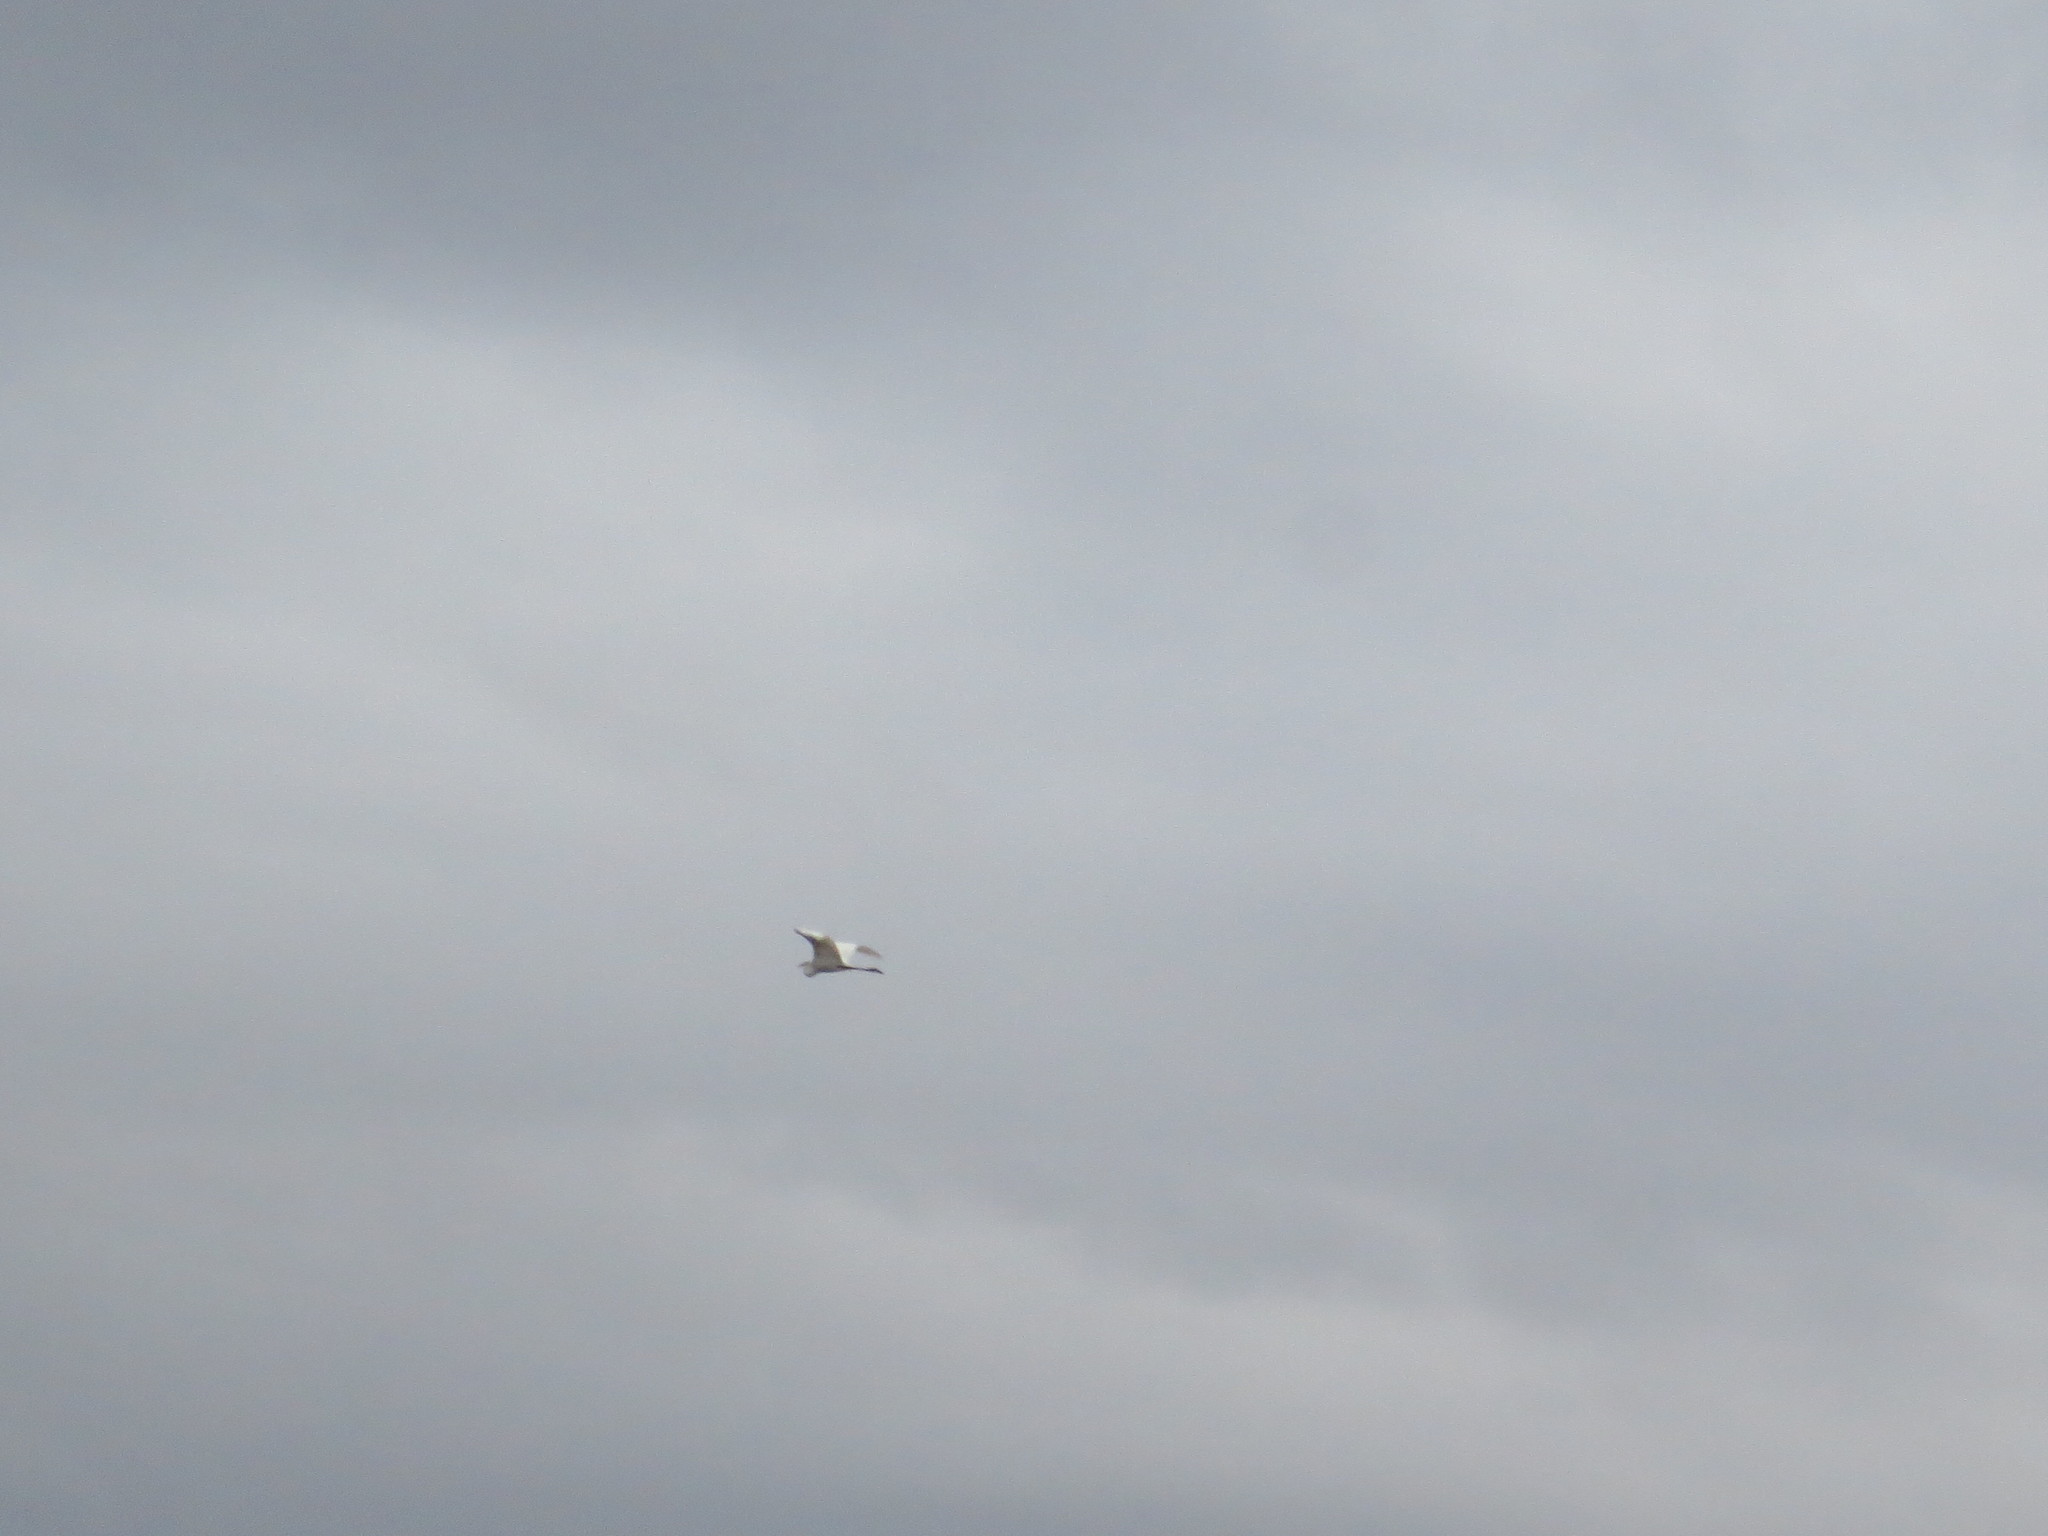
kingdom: Animalia
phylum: Chordata
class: Aves
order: Pelecaniformes
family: Ardeidae
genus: Ardea
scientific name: Ardea alba
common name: Great egret
